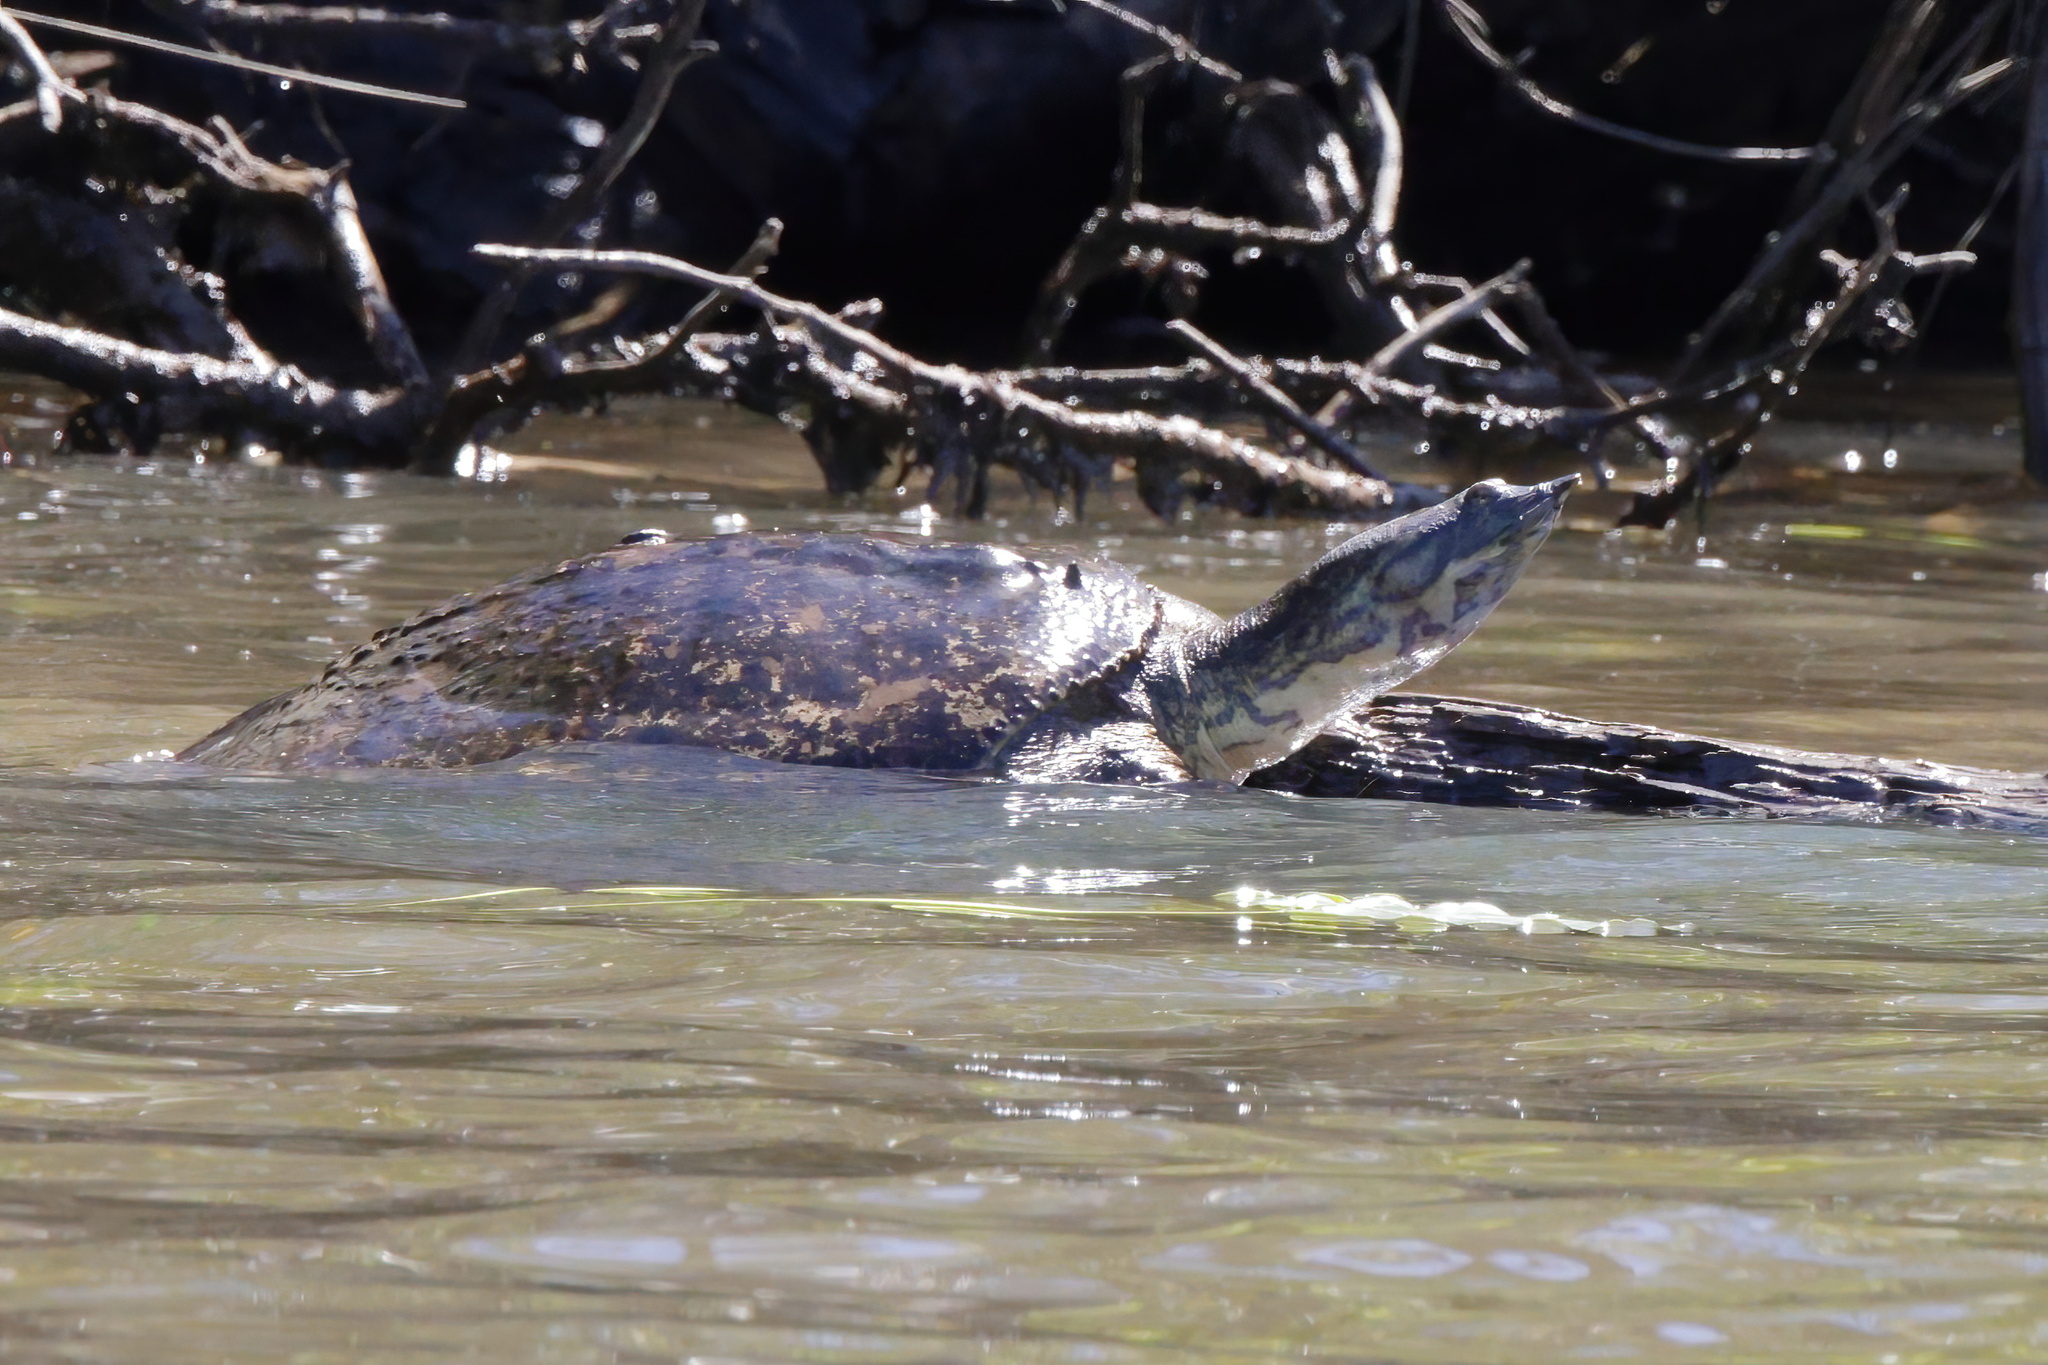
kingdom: Animalia
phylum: Chordata
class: Testudines
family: Trionychidae
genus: Apalone
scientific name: Apalone spinifera
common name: Spiny softshell turtle
